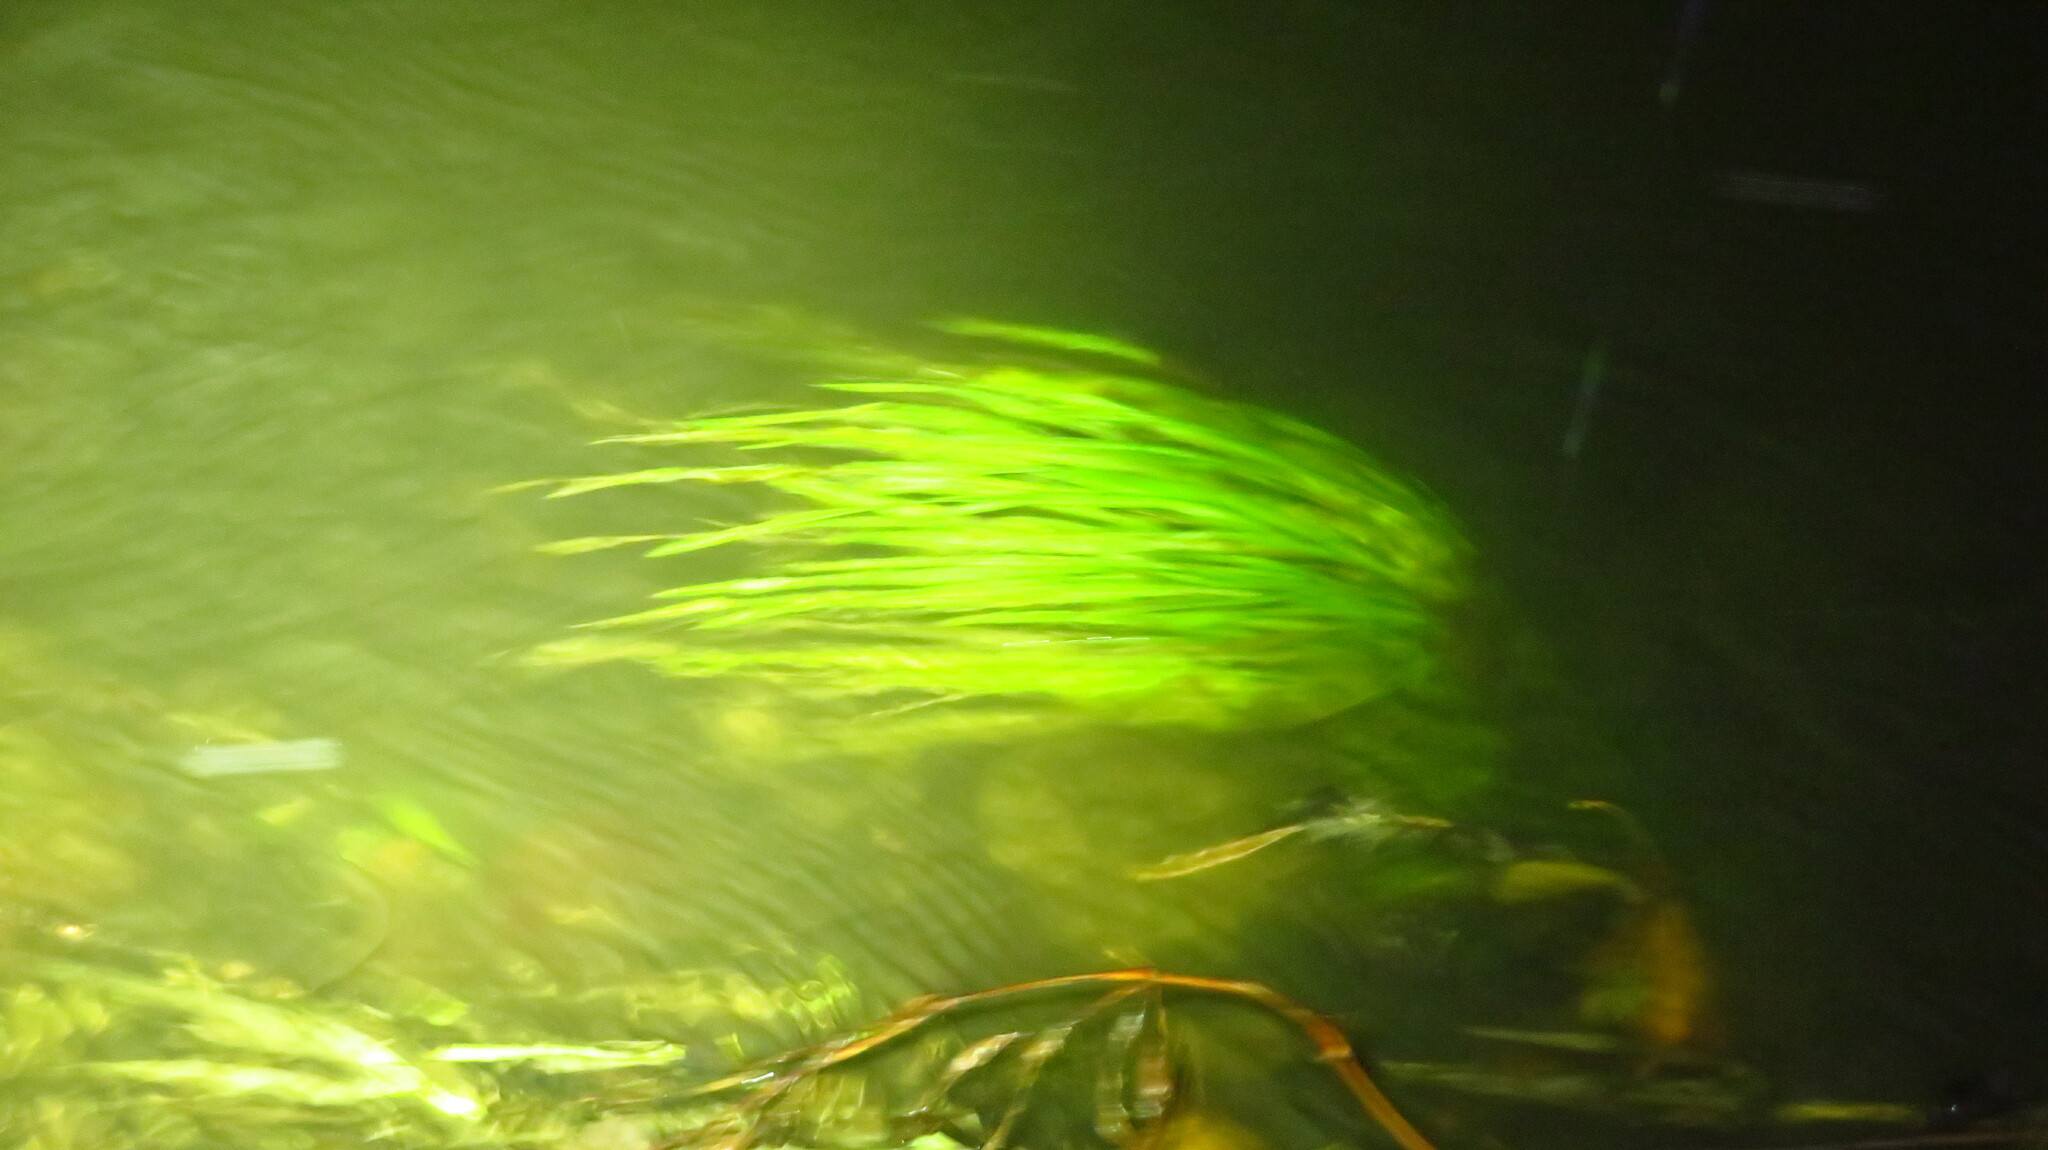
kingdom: Plantae
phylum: Tracheophyta
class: Liliopsida
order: Alismatales
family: Hydrocharitaceae
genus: Vallisneria
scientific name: Vallisneria americana
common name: American eelgrass
